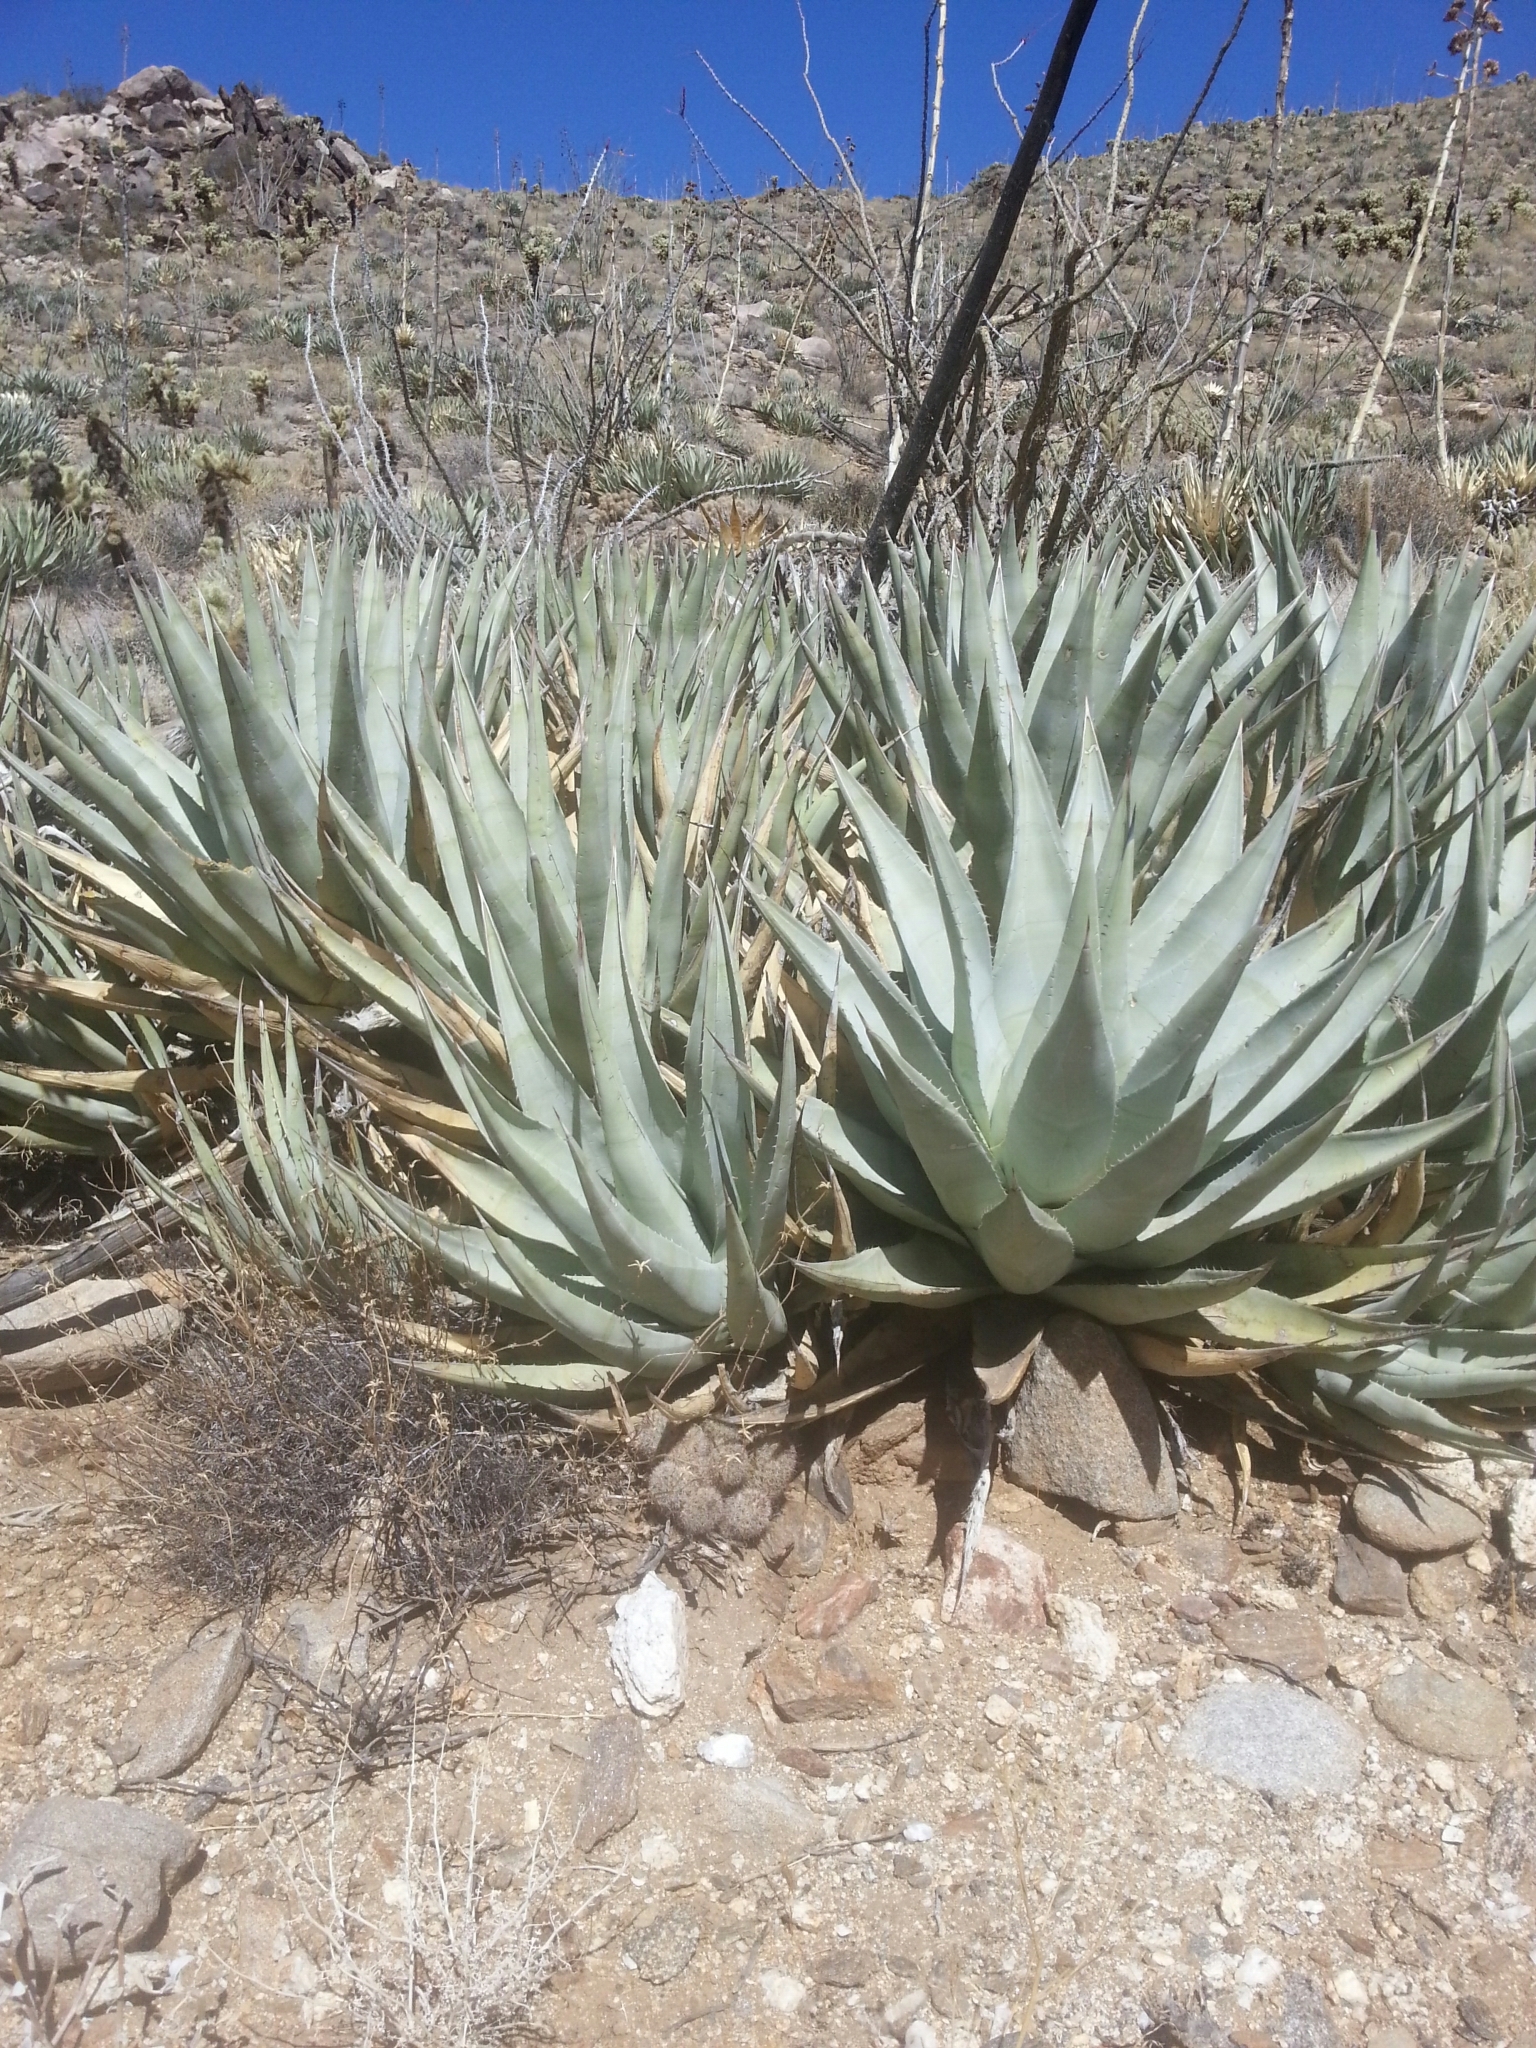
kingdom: Plantae
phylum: Tracheophyta
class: Liliopsida
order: Asparagales
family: Asparagaceae
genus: Agave
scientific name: Agave deserti
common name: Desert agave
